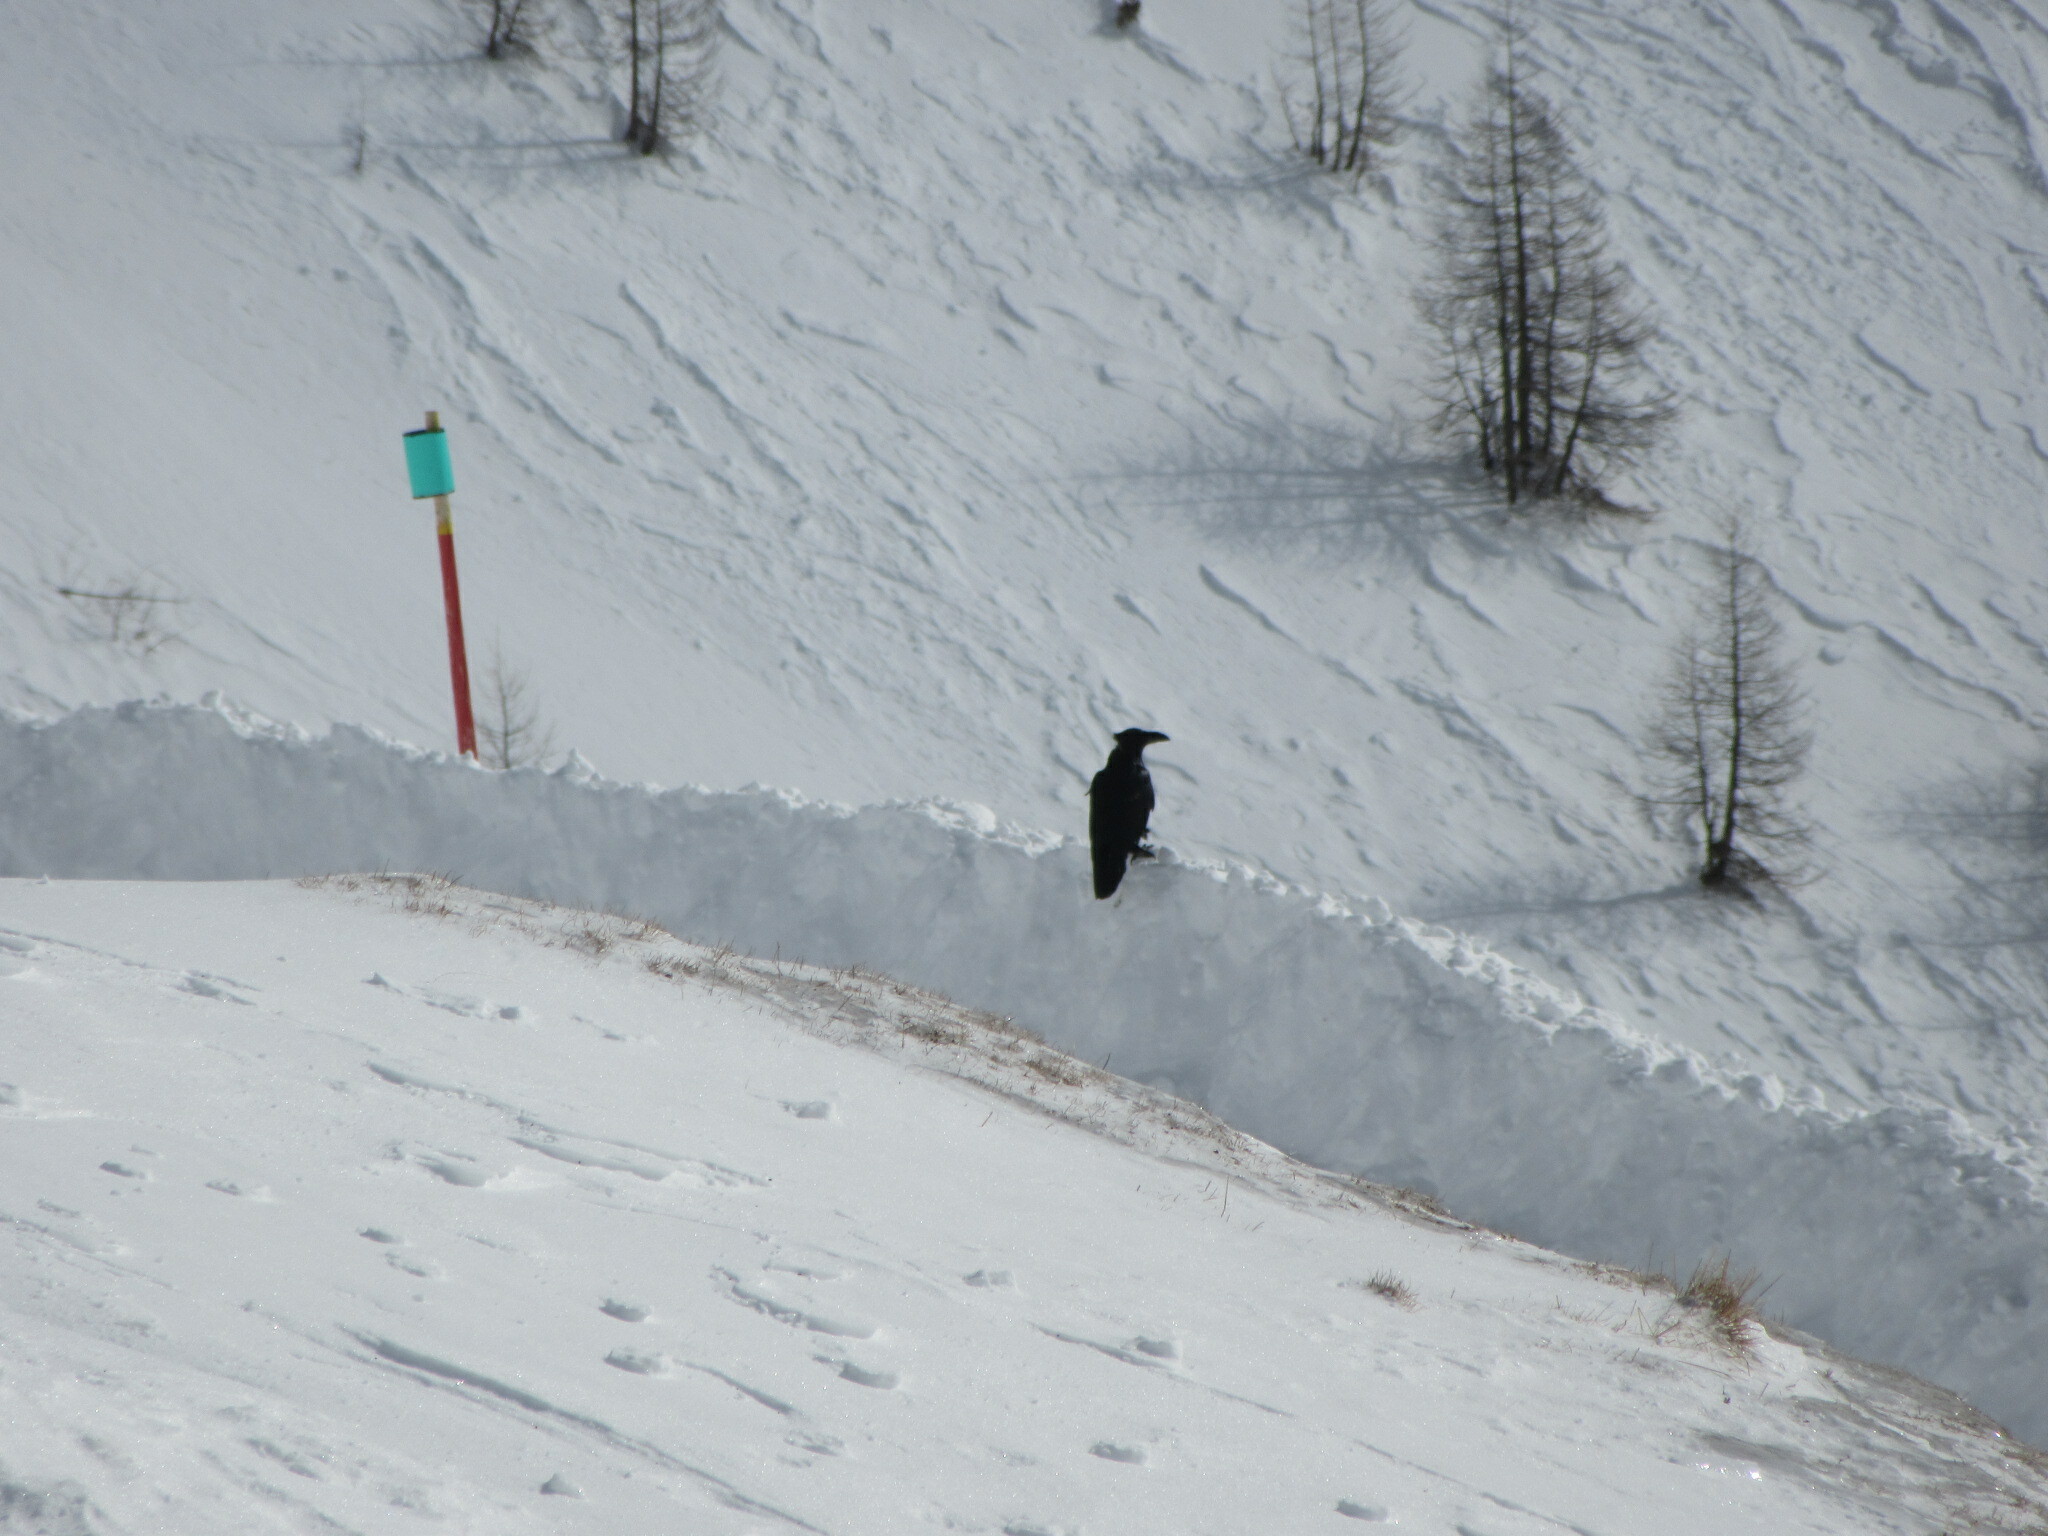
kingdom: Animalia
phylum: Chordata
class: Aves
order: Passeriformes
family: Corvidae
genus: Corvus
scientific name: Corvus corax
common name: Common raven
